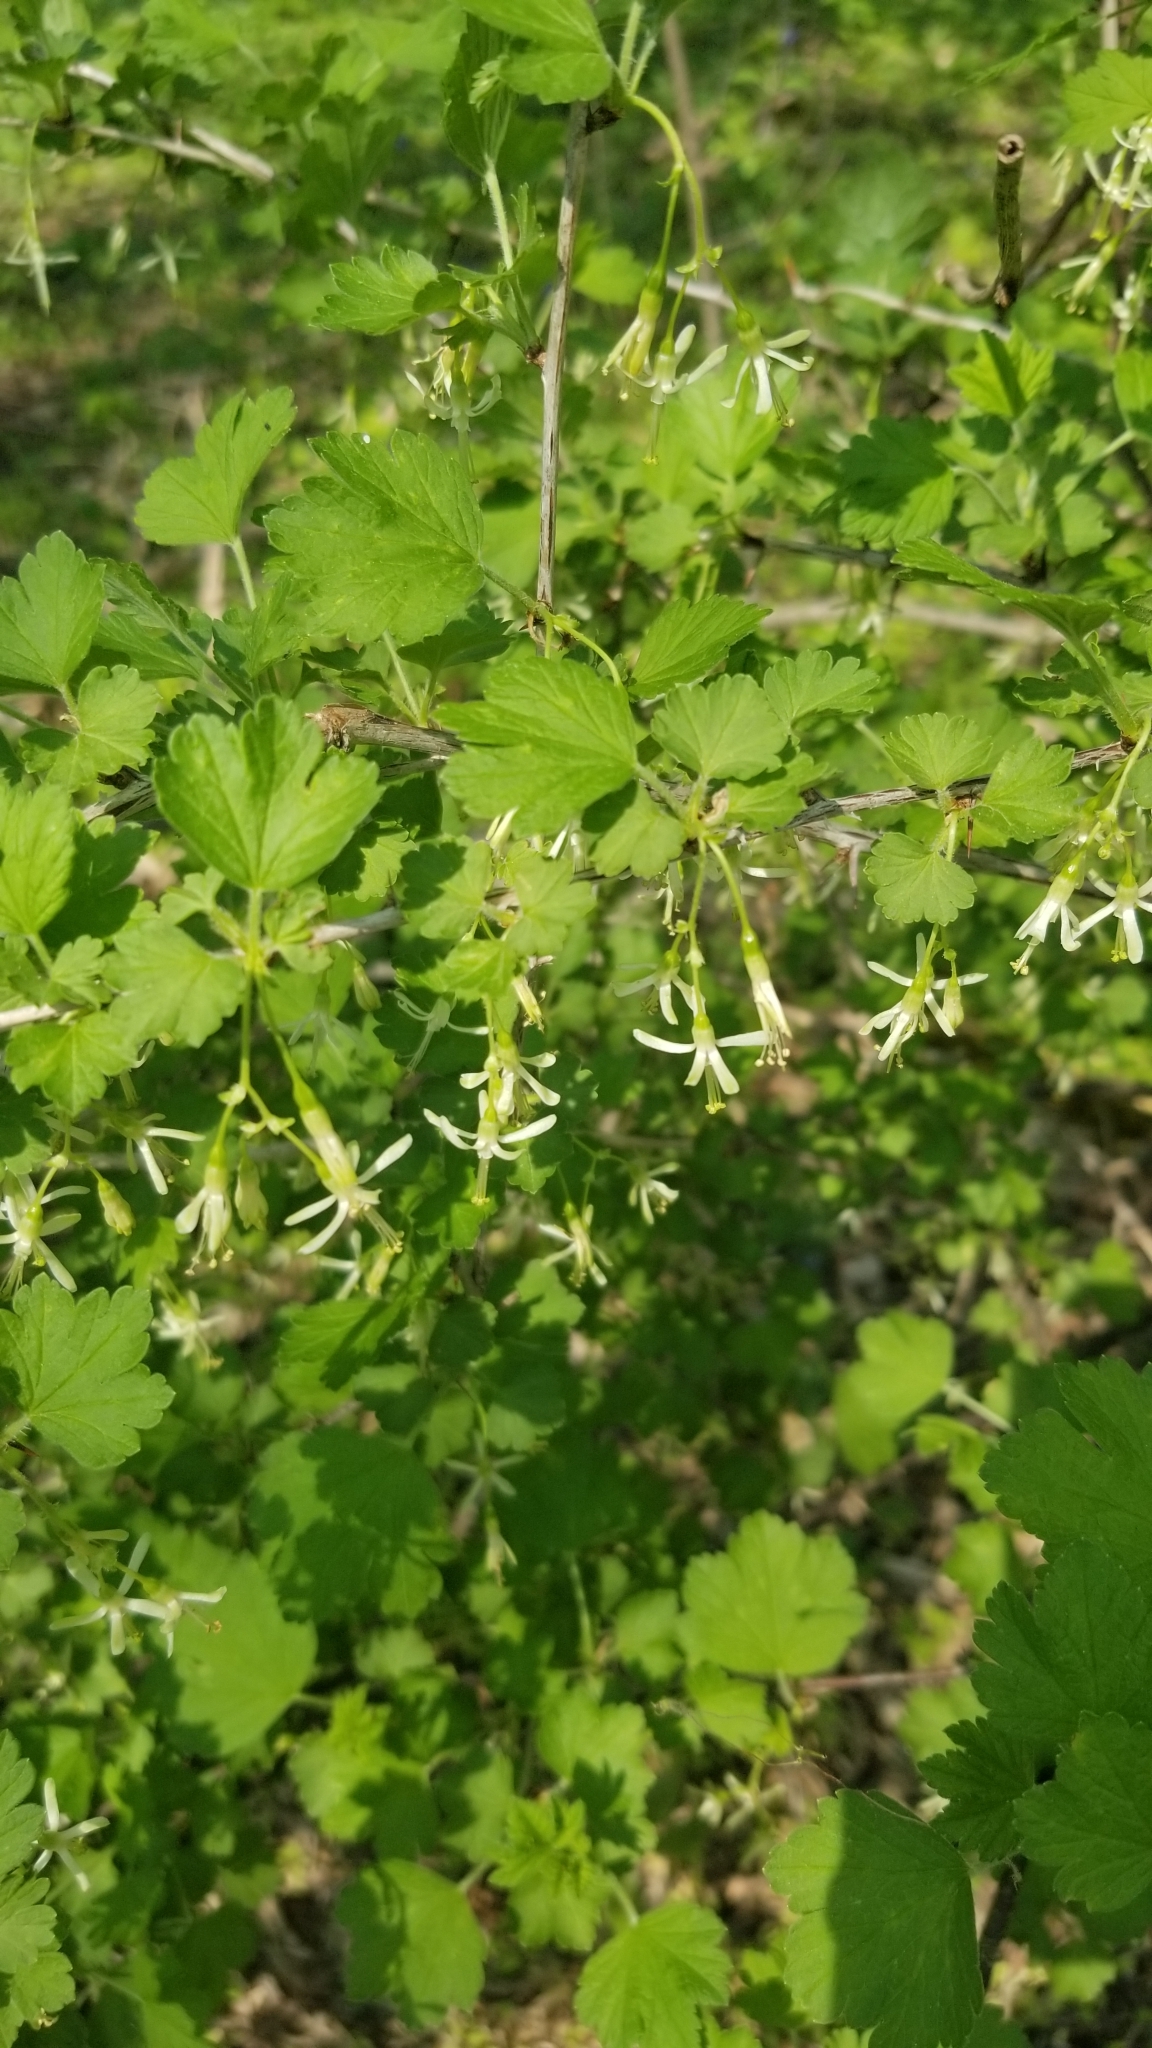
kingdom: Plantae
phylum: Tracheophyta
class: Magnoliopsida
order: Saxifragales
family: Grossulariaceae
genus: Ribes
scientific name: Ribes missouriense
